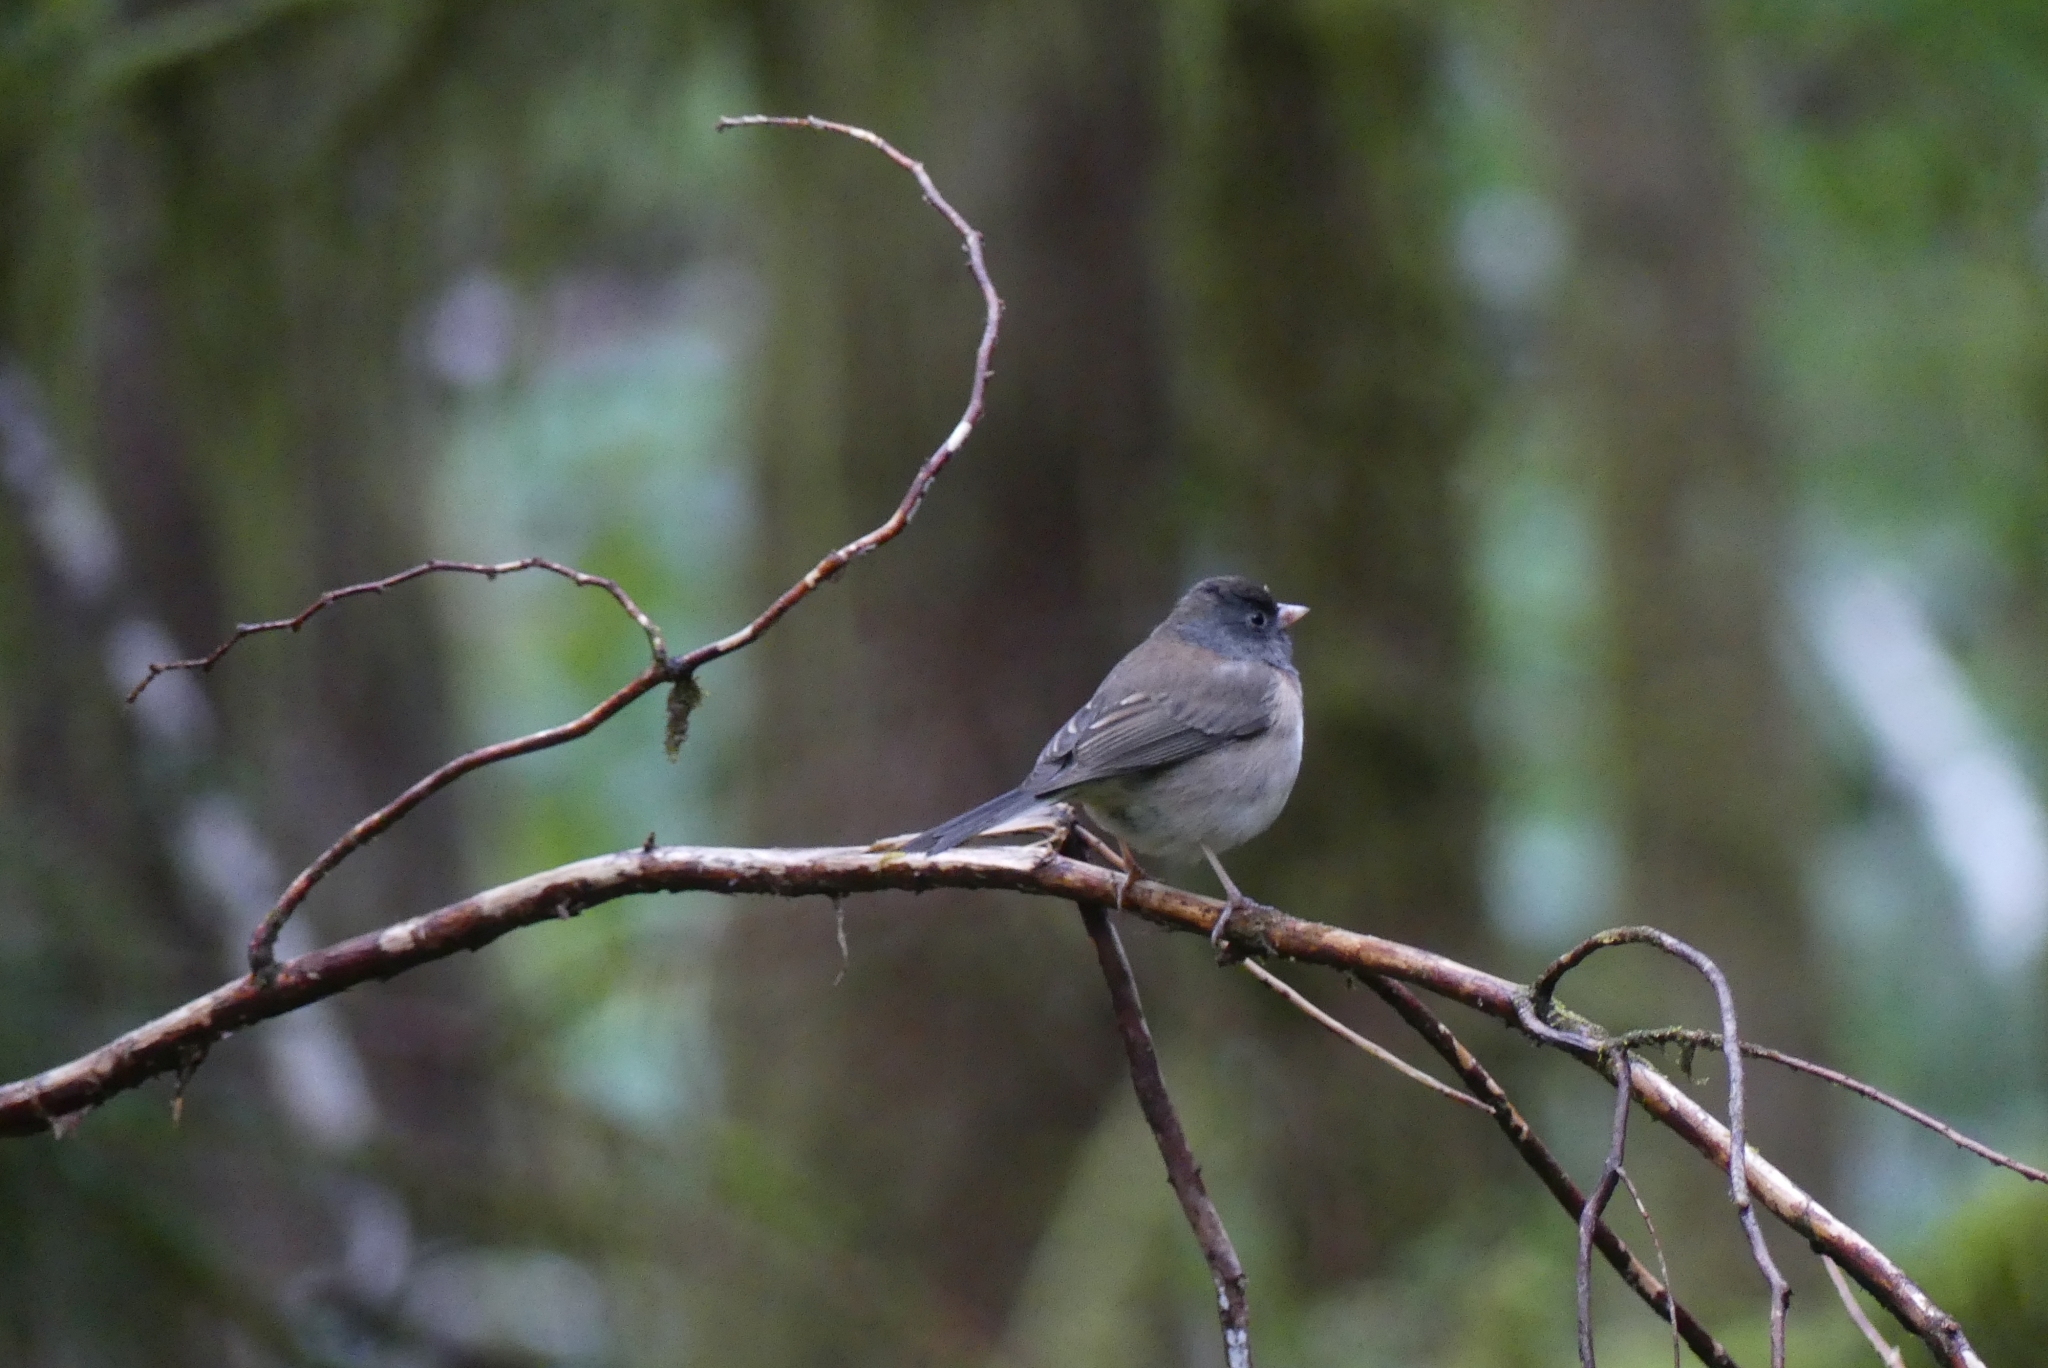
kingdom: Animalia
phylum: Chordata
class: Aves
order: Passeriformes
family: Passerellidae
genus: Junco
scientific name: Junco hyemalis
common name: Dark-eyed junco
